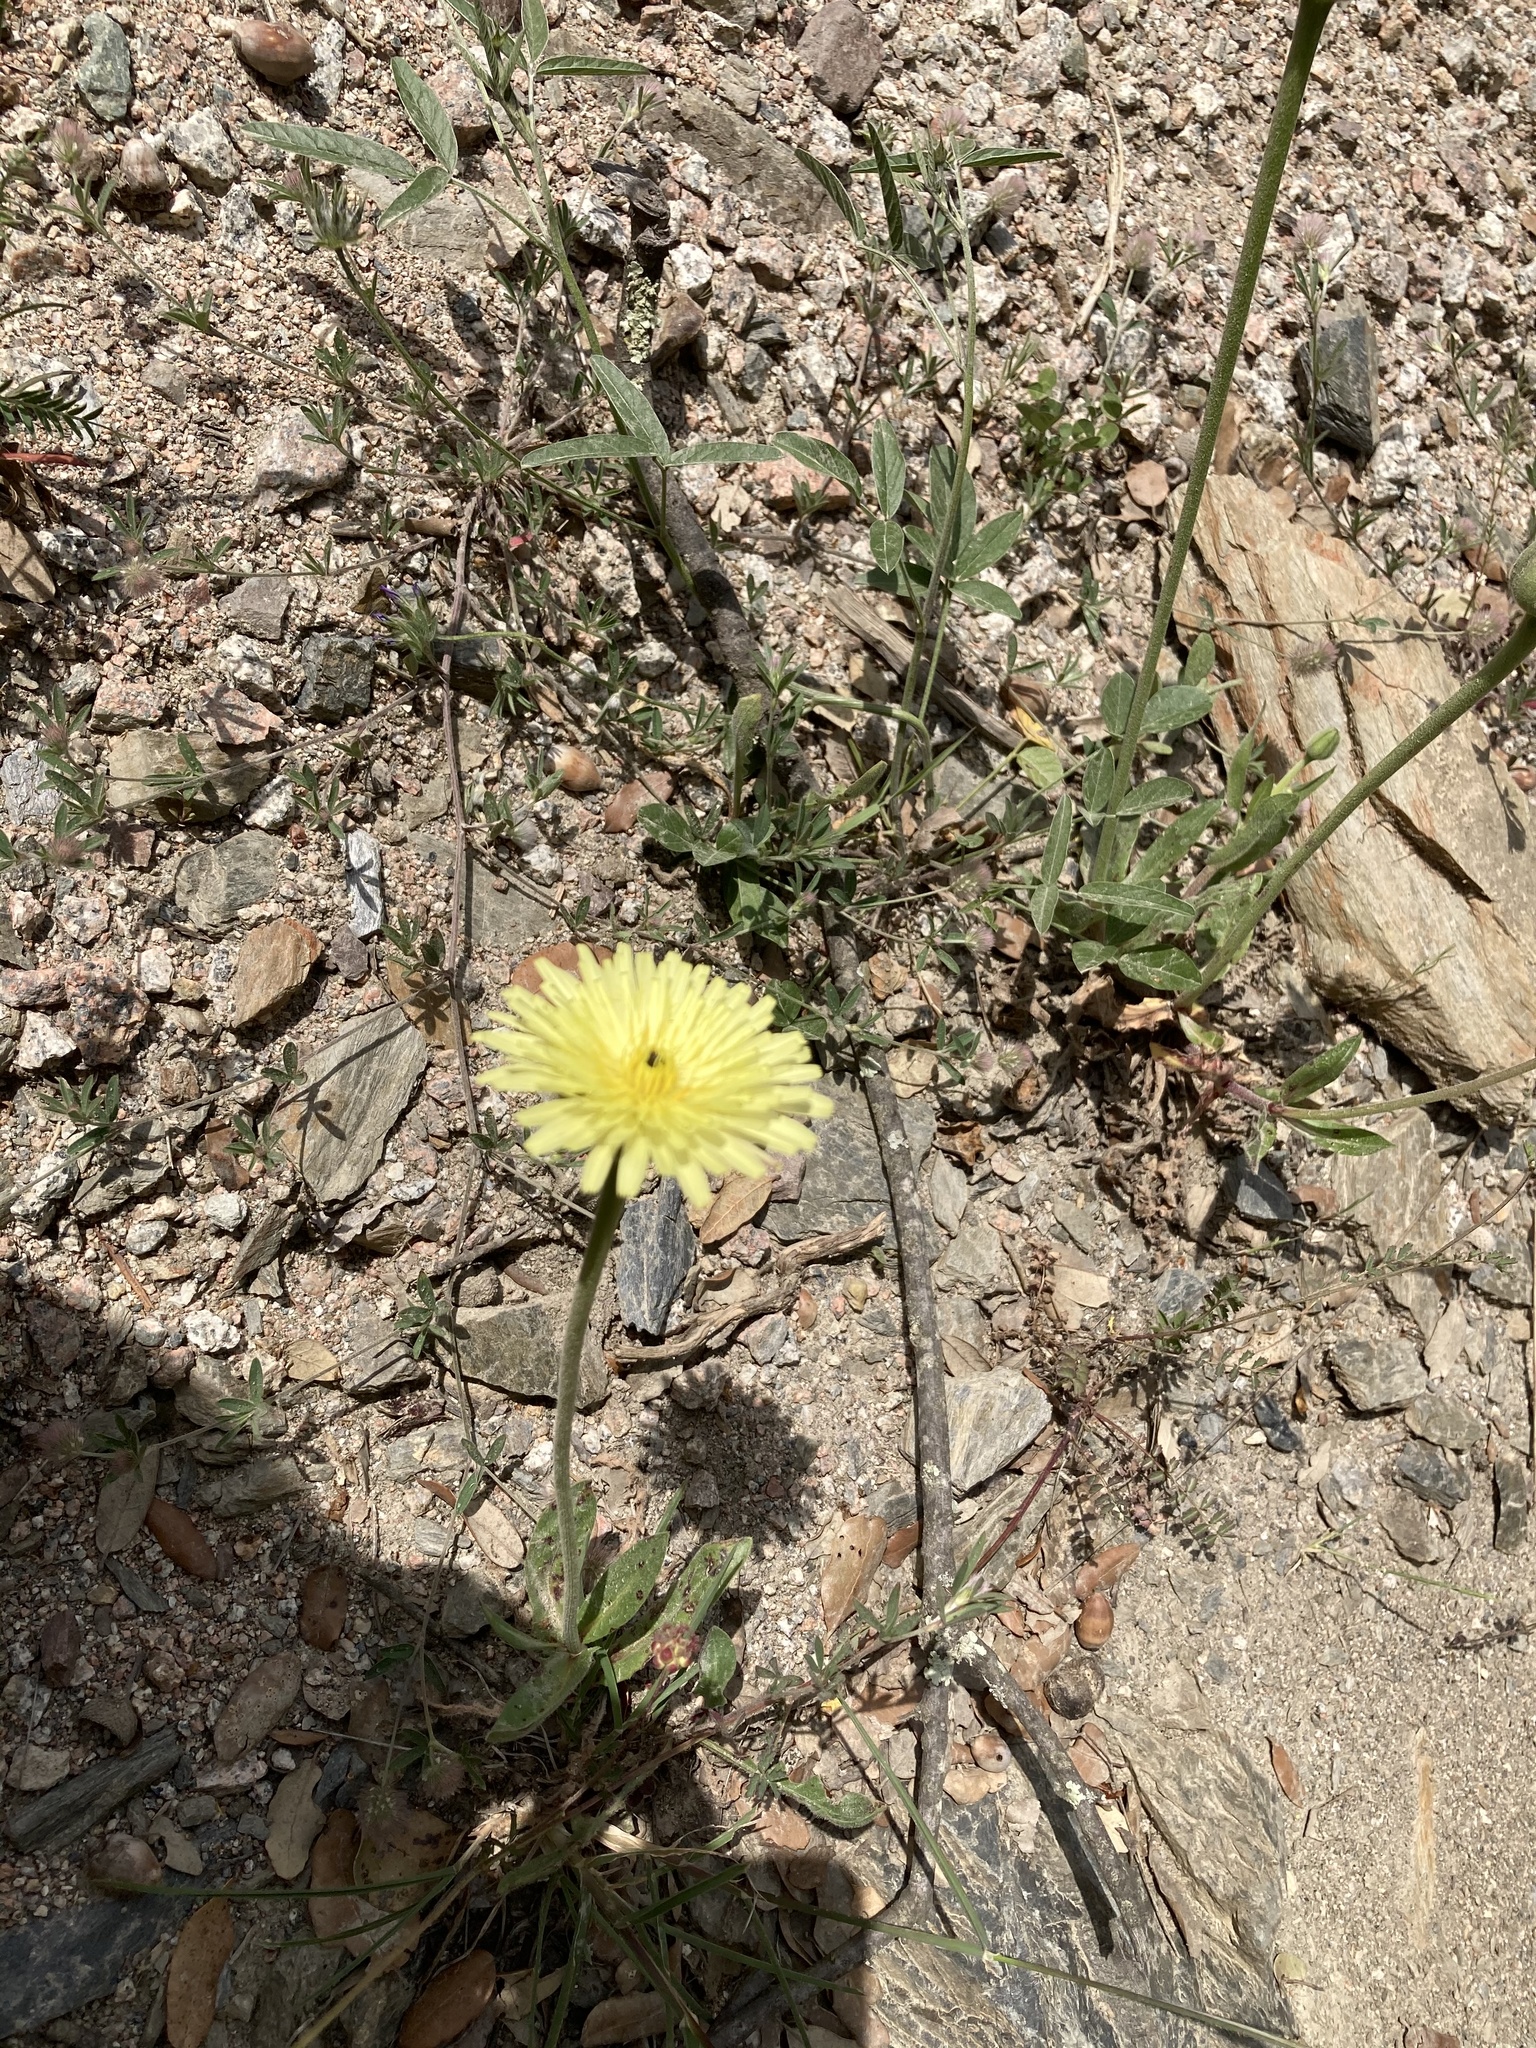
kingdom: Plantae
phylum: Tracheophyta
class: Magnoliopsida
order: Asterales
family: Asteraceae
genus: Urospermum
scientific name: Urospermum dalechampii
